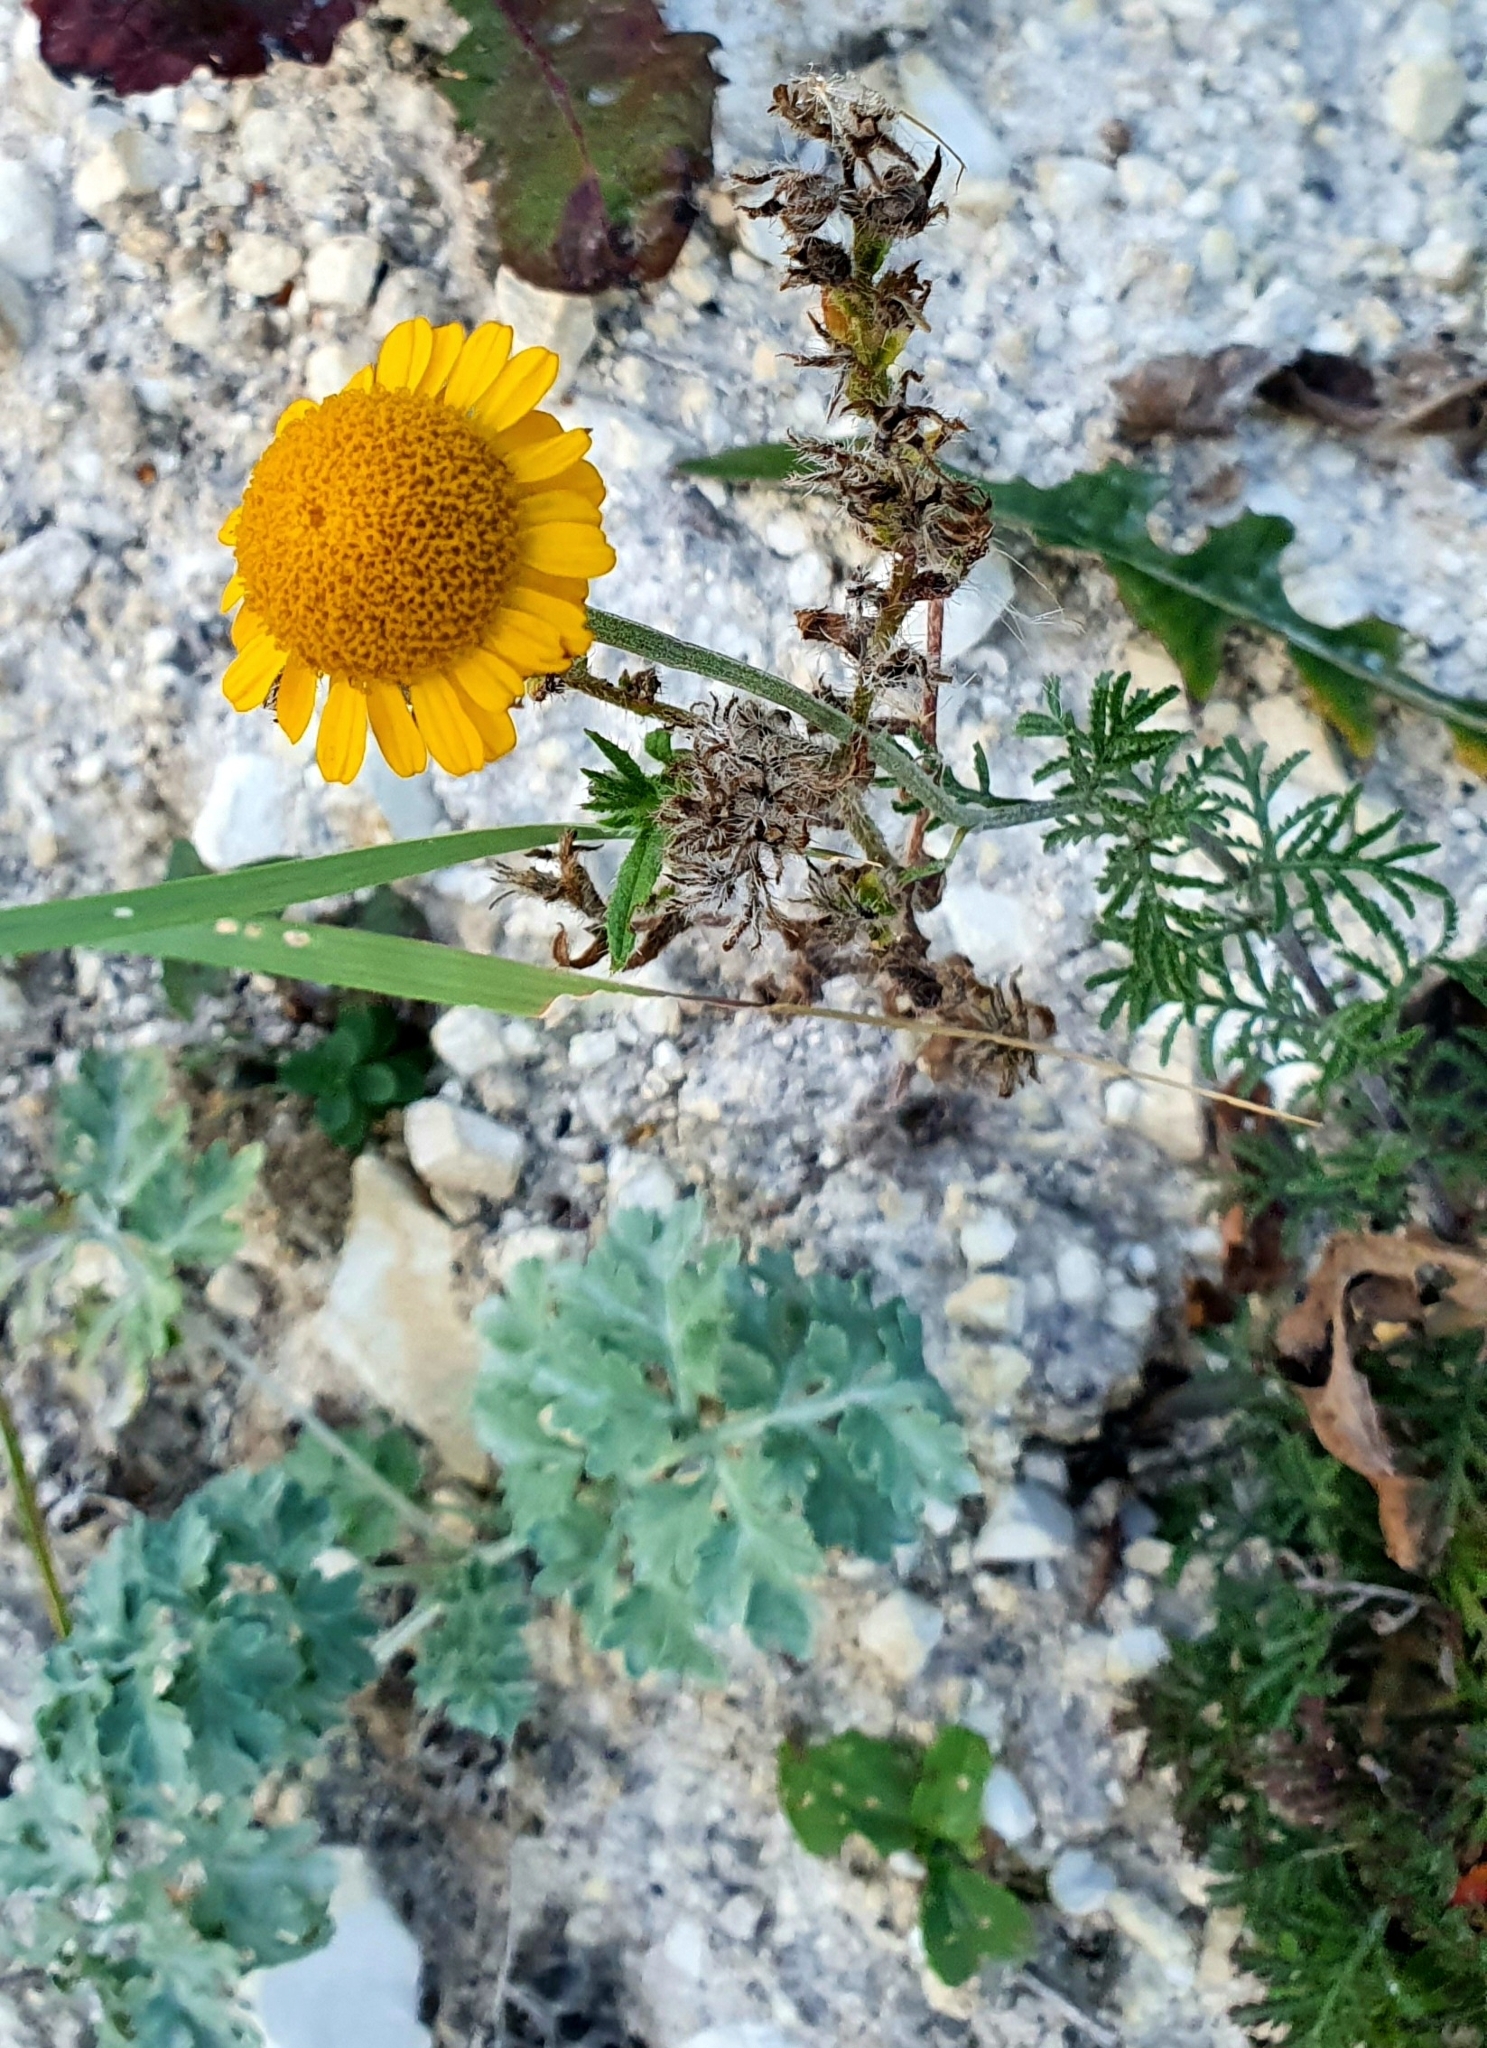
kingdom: Plantae
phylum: Tracheophyta
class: Magnoliopsida
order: Asterales
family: Asteraceae
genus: Cota
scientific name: Cota tinctoria
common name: Golden chamomile
